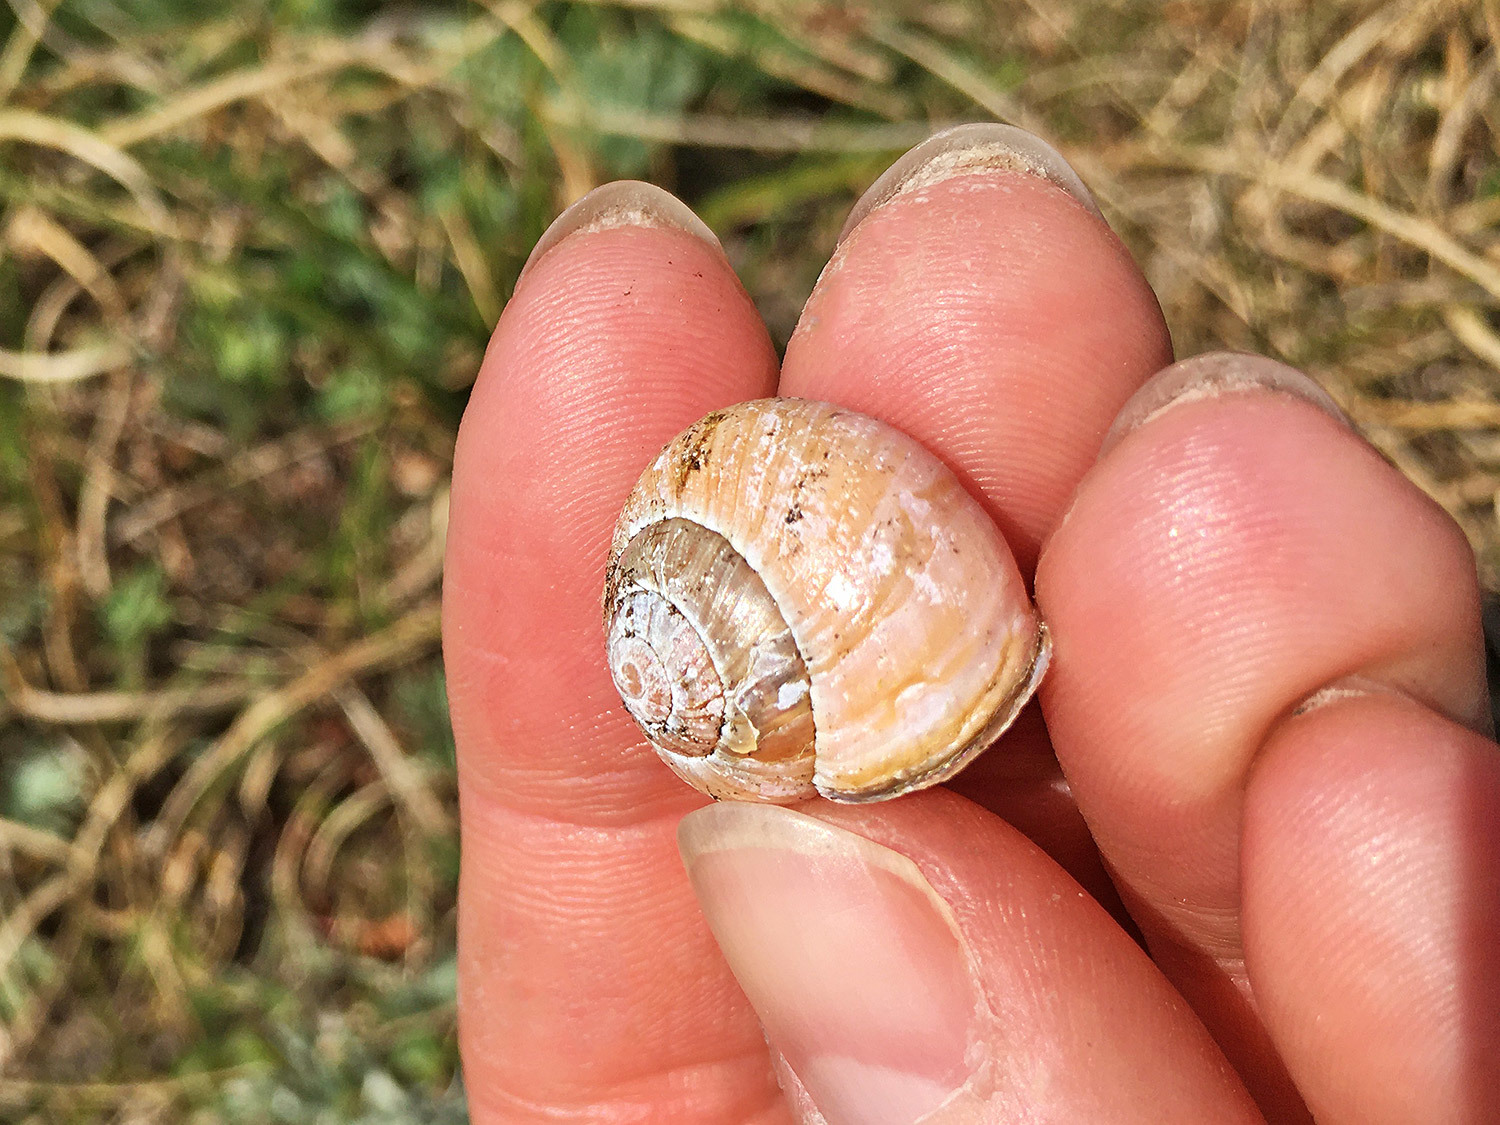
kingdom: Animalia
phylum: Mollusca
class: Gastropoda
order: Stylommatophora
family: Helicidae
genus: Cepaea
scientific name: Cepaea nemoralis
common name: Grovesnail
